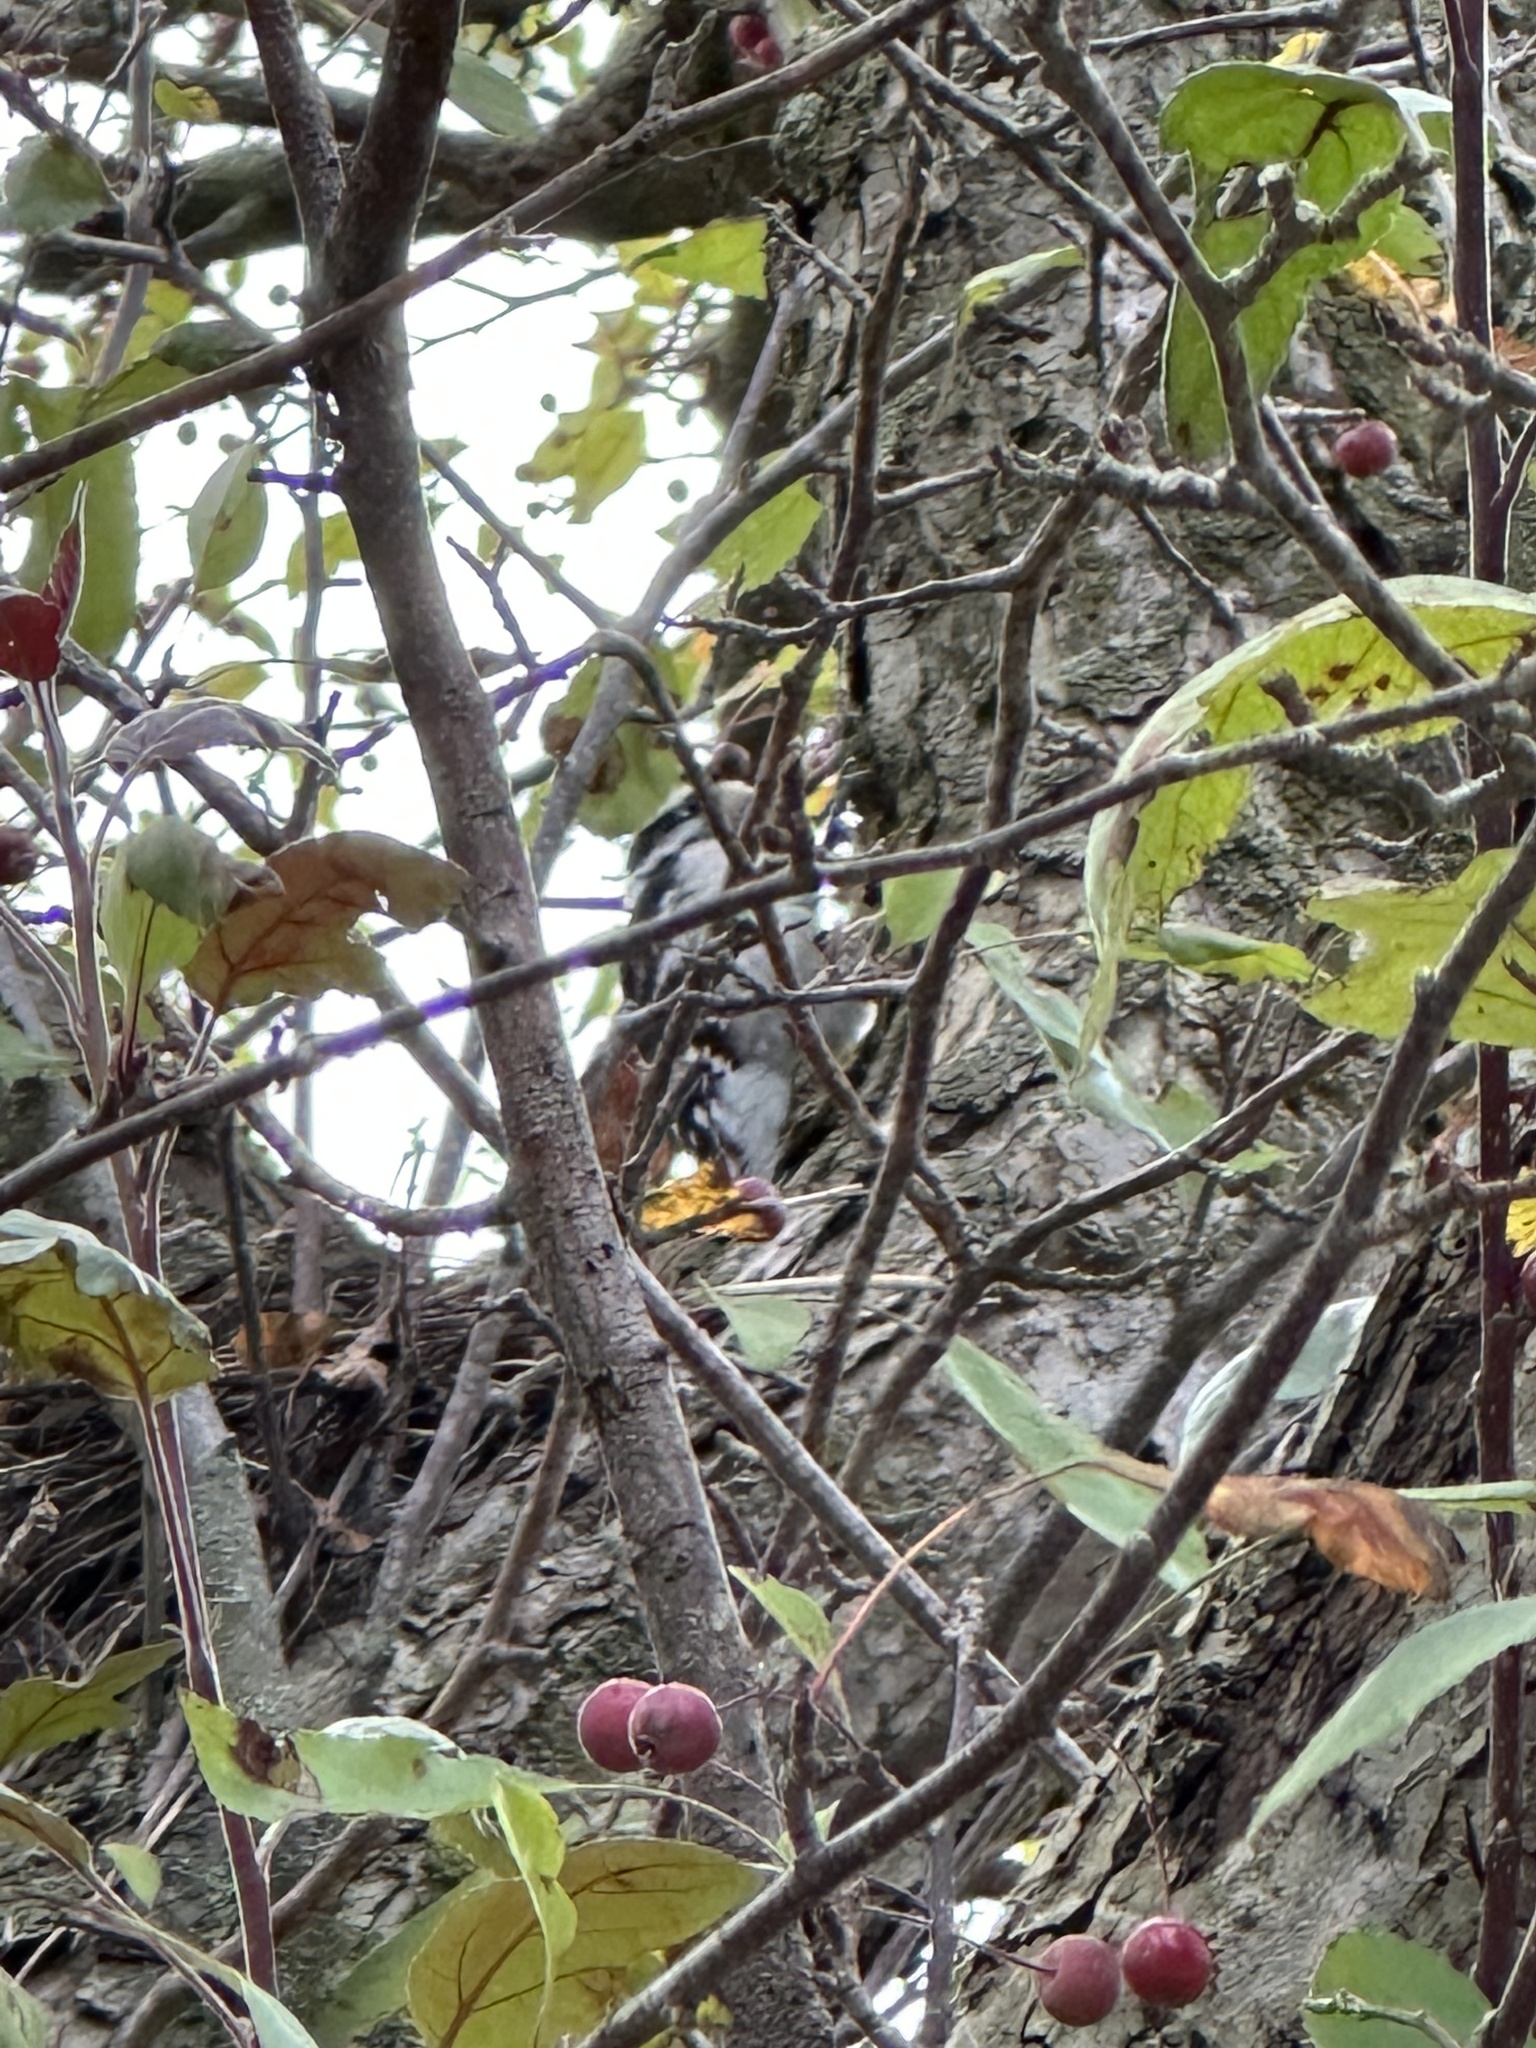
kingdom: Animalia
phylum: Chordata
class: Aves
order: Piciformes
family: Picidae
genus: Dryobates
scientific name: Dryobates pubescens
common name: Downy woodpecker
